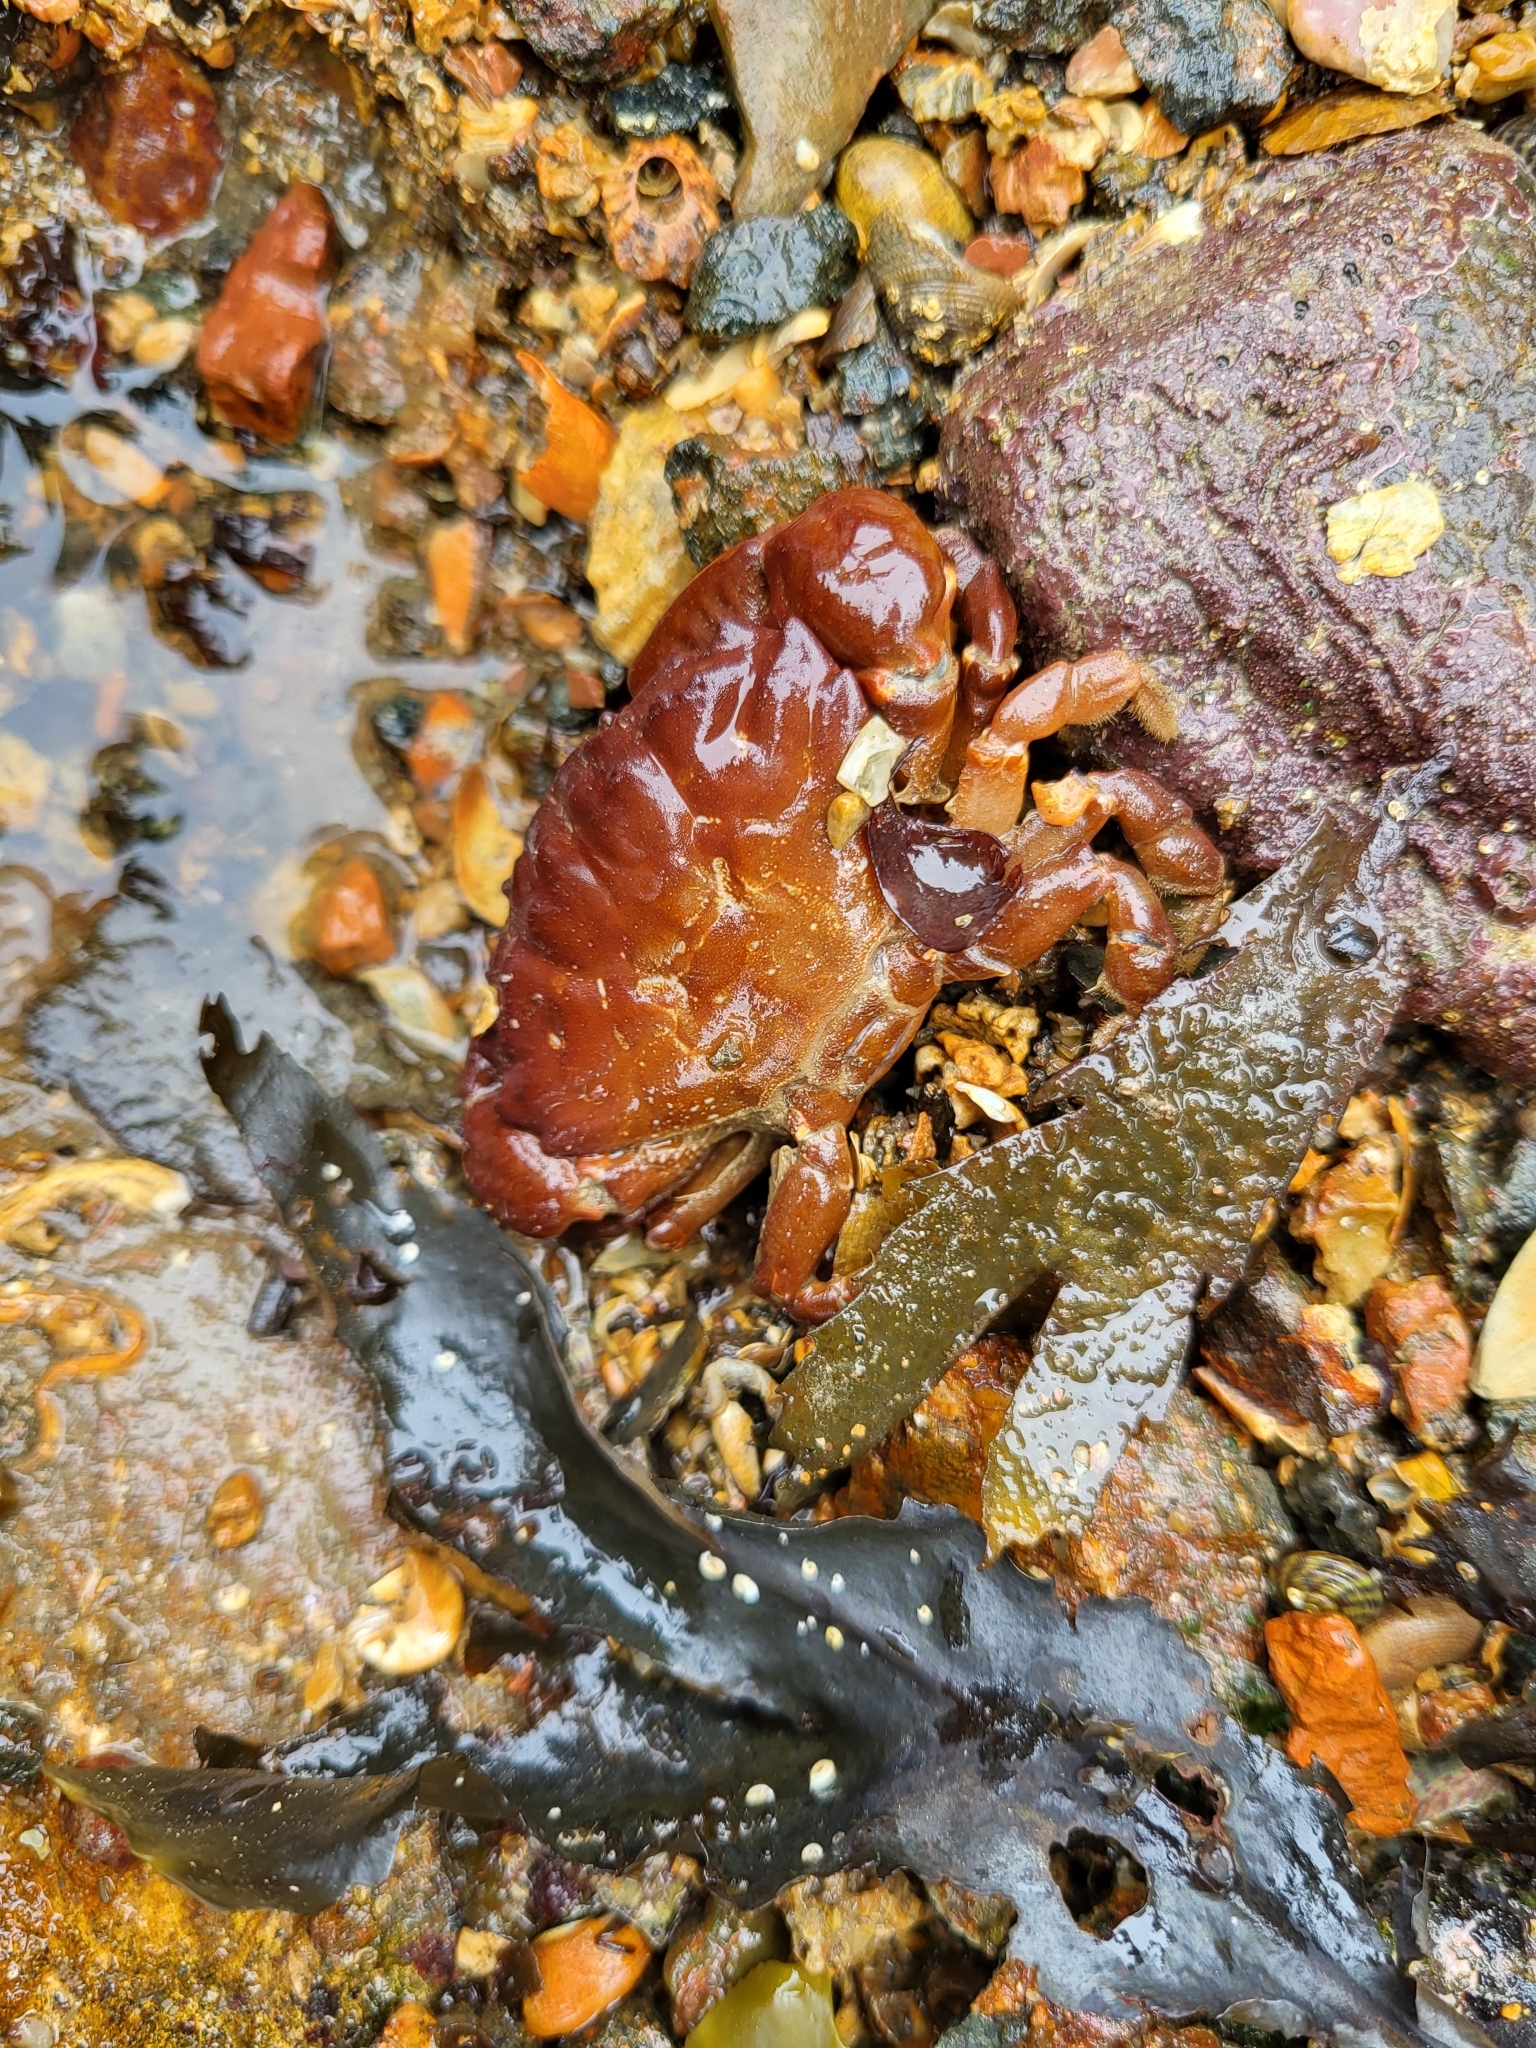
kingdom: Animalia
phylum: Arthropoda
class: Malacostraca
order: Decapoda
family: Xanthidae
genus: Xantho
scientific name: Xantho hydrophilus
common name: Montagu's crab
